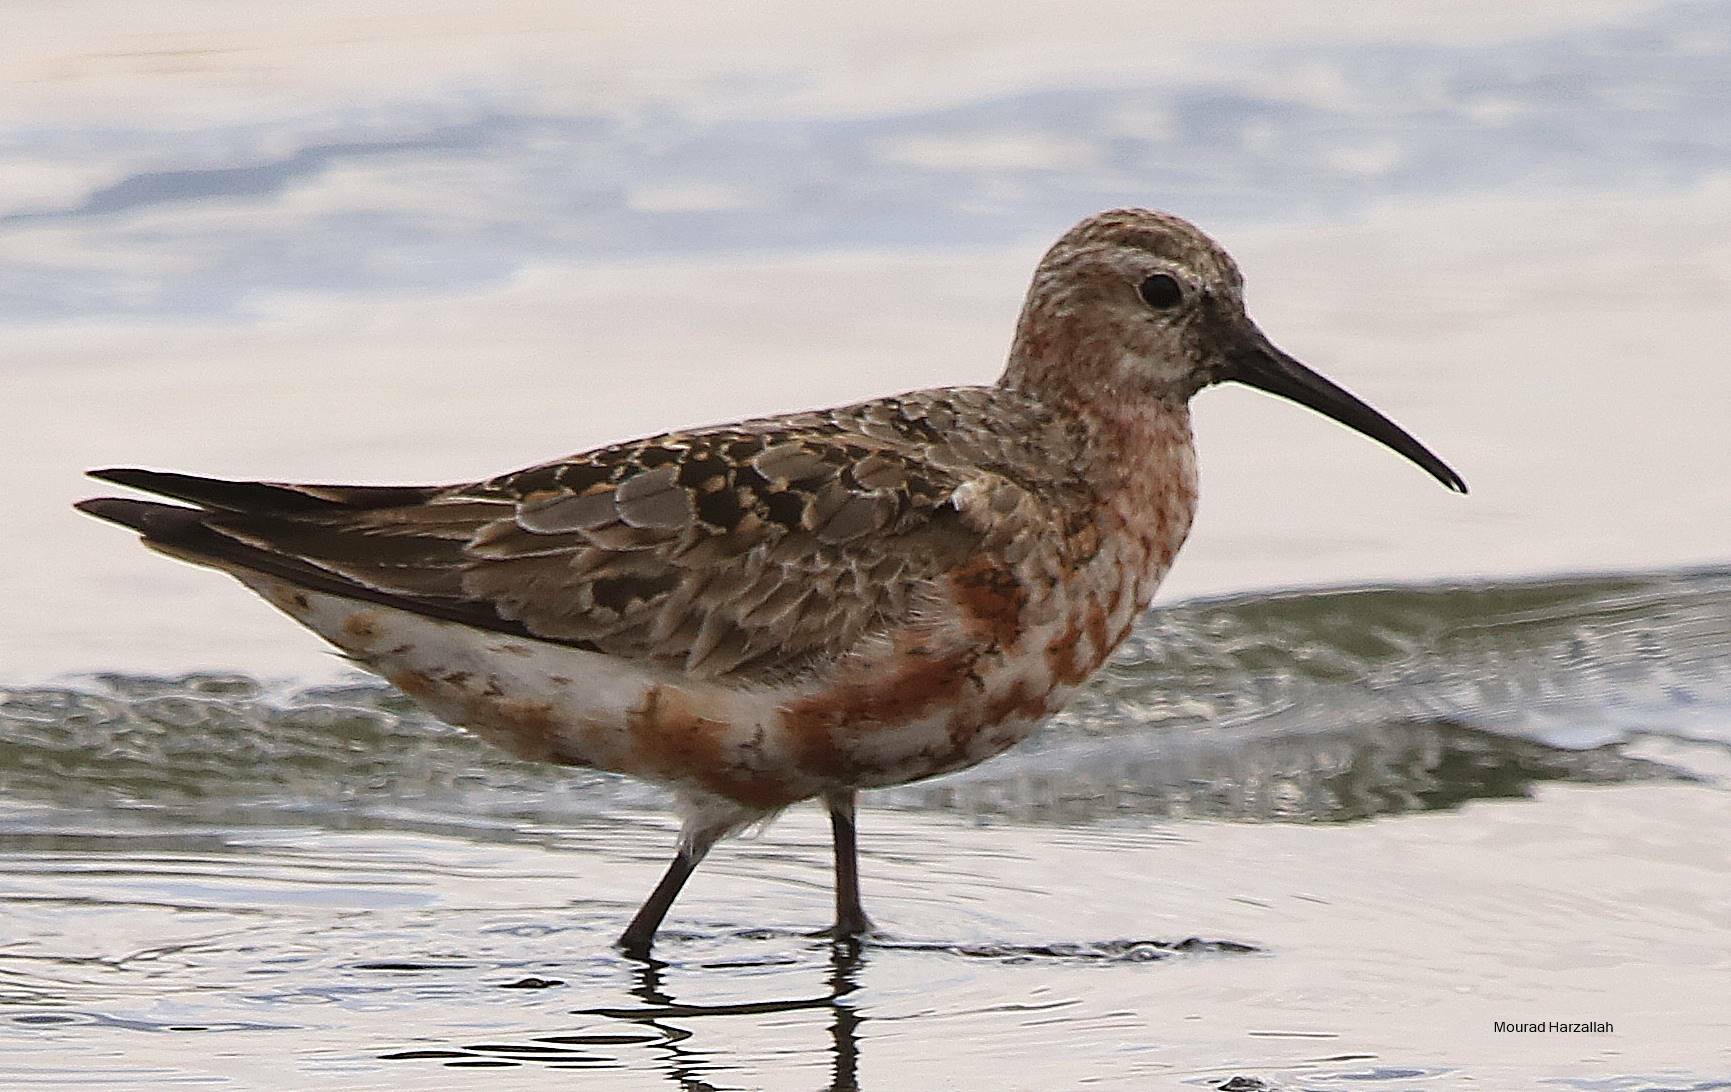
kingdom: Animalia
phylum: Chordata
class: Aves
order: Charadriiformes
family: Scolopacidae
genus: Calidris
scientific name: Calidris ferruginea
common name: Curlew sandpiper
